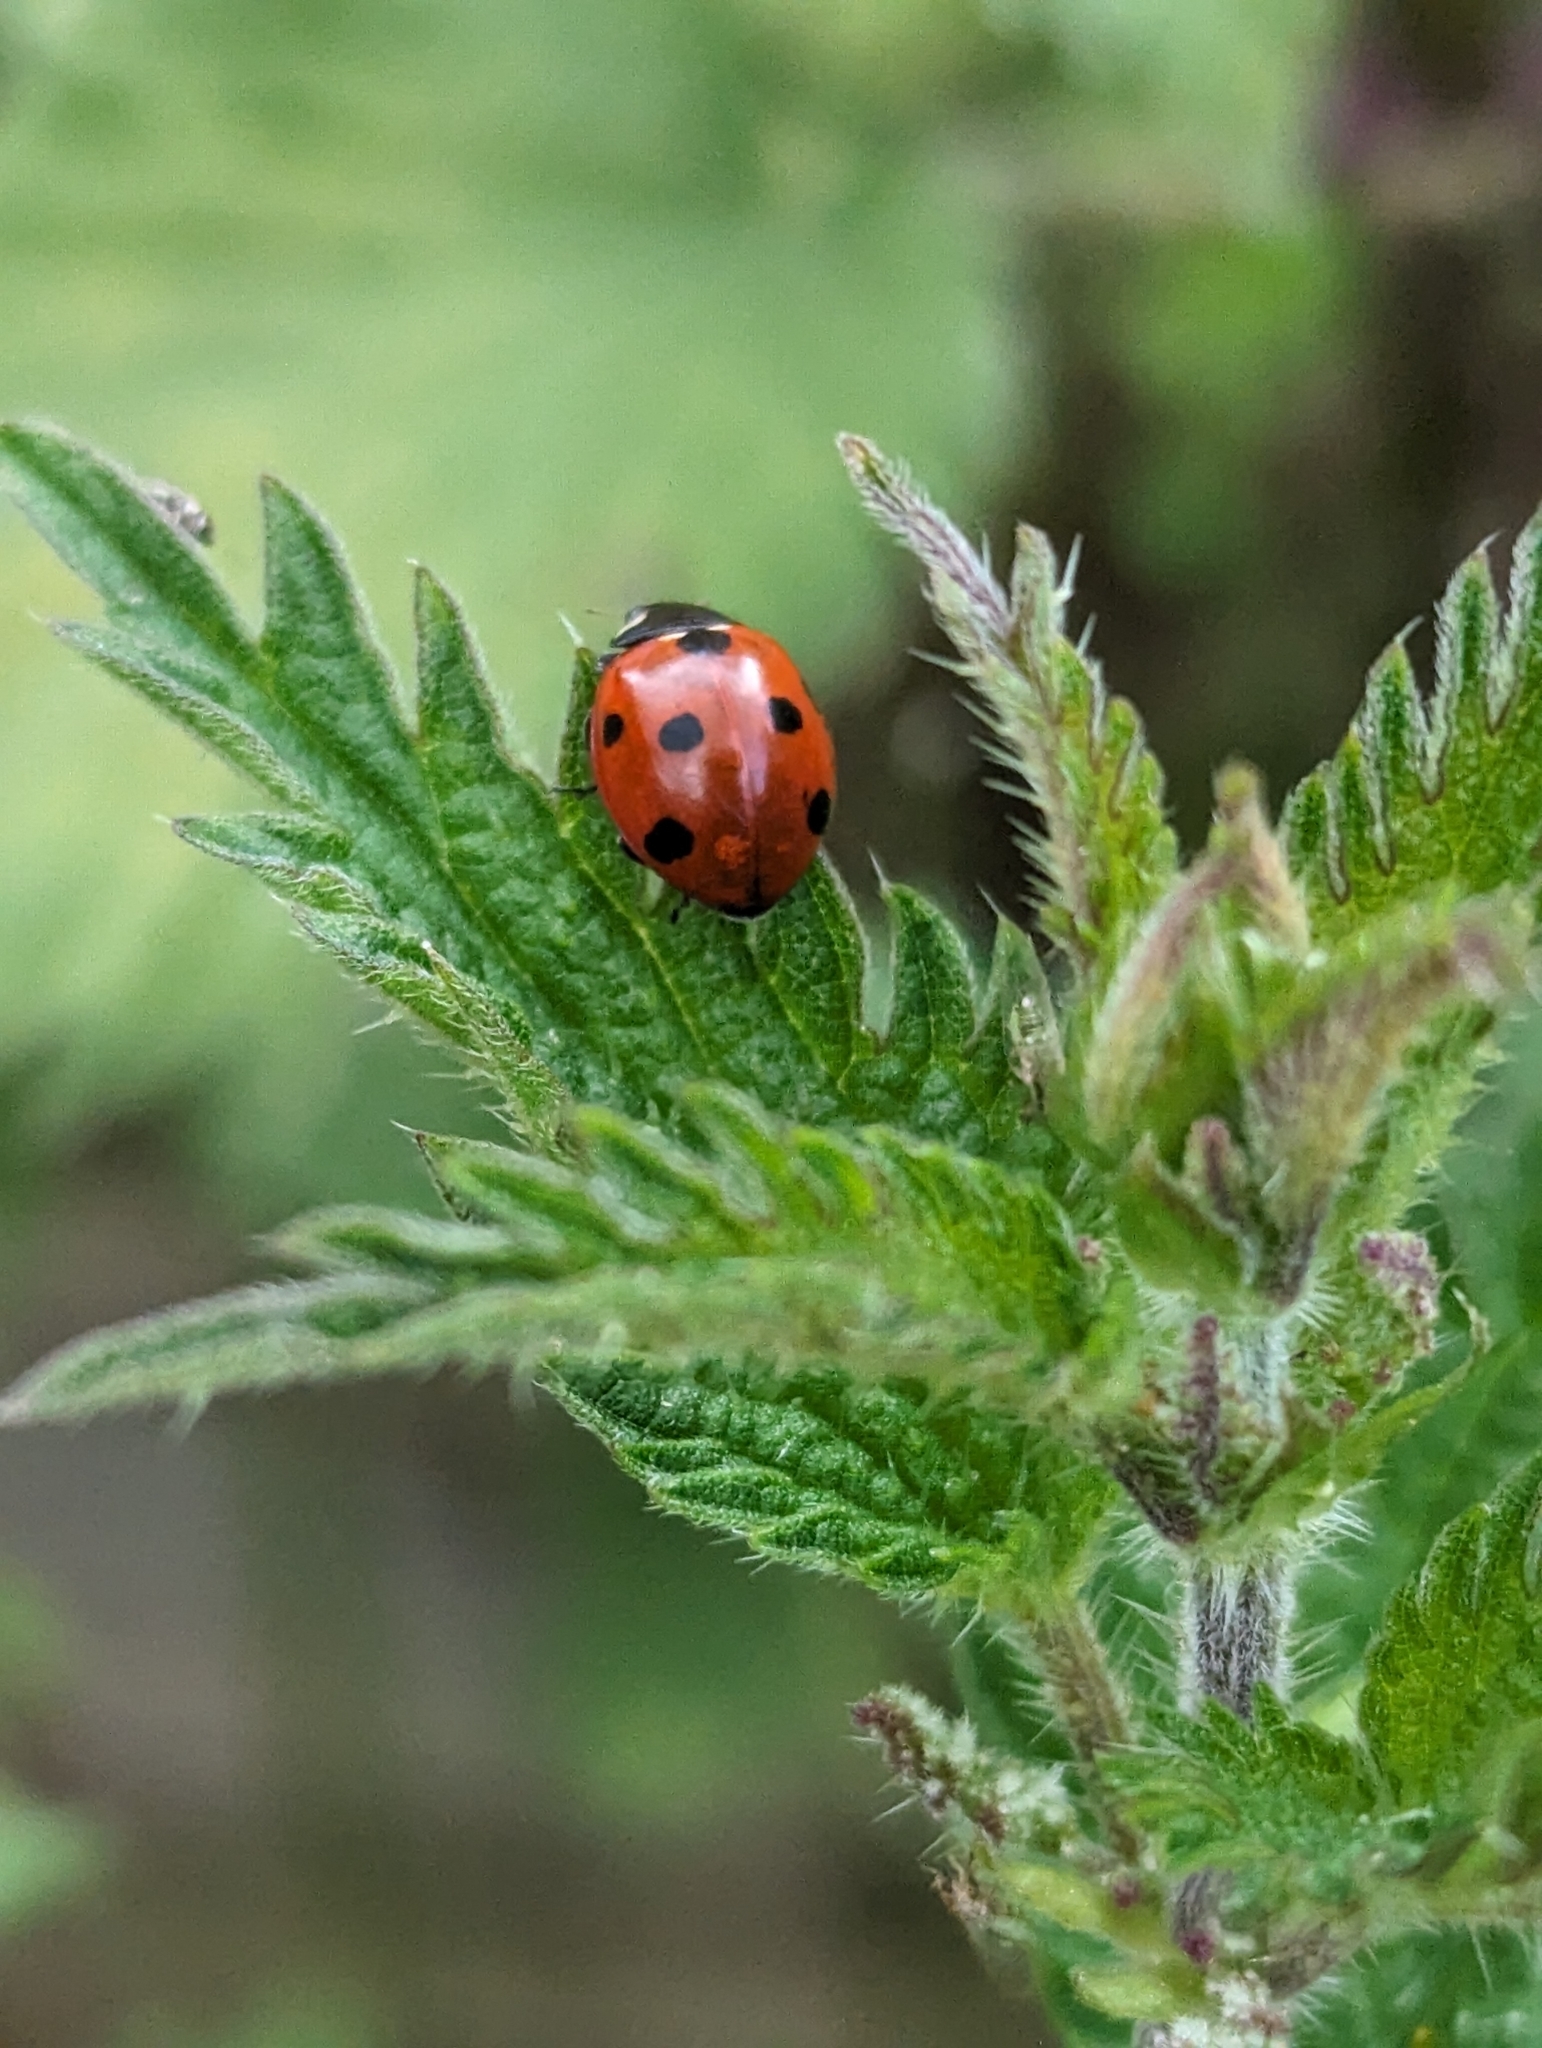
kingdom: Animalia
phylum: Arthropoda
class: Insecta
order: Coleoptera
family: Coccinellidae
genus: Coccinella
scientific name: Coccinella septempunctata
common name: Sevenspotted lady beetle
